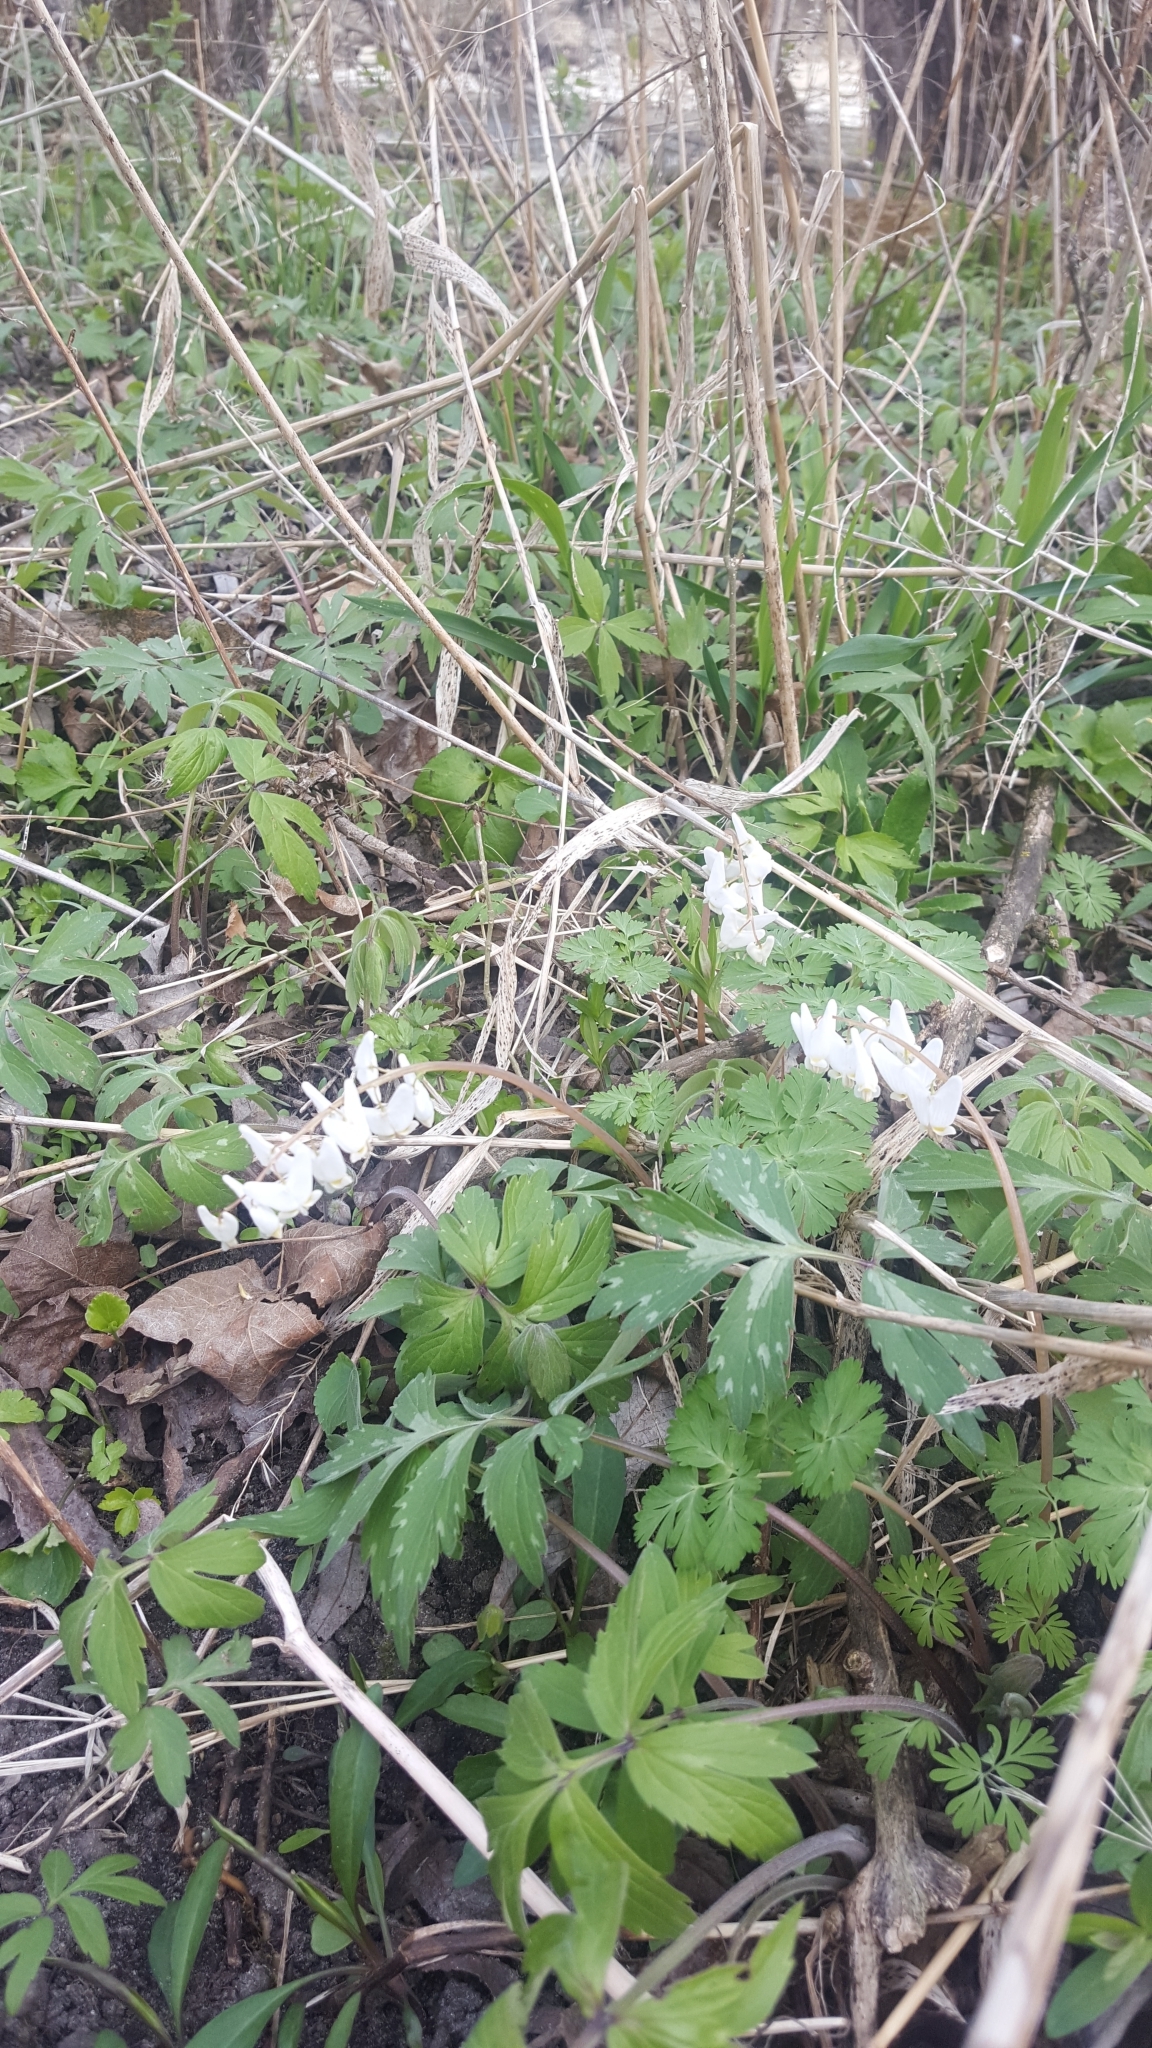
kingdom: Plantae
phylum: Tracheophyta
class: Magnoliopsida
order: Ranunculales
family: Papaveraceae
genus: Dicentra
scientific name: Dicentra cucullaria
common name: Dutchman's breeches
